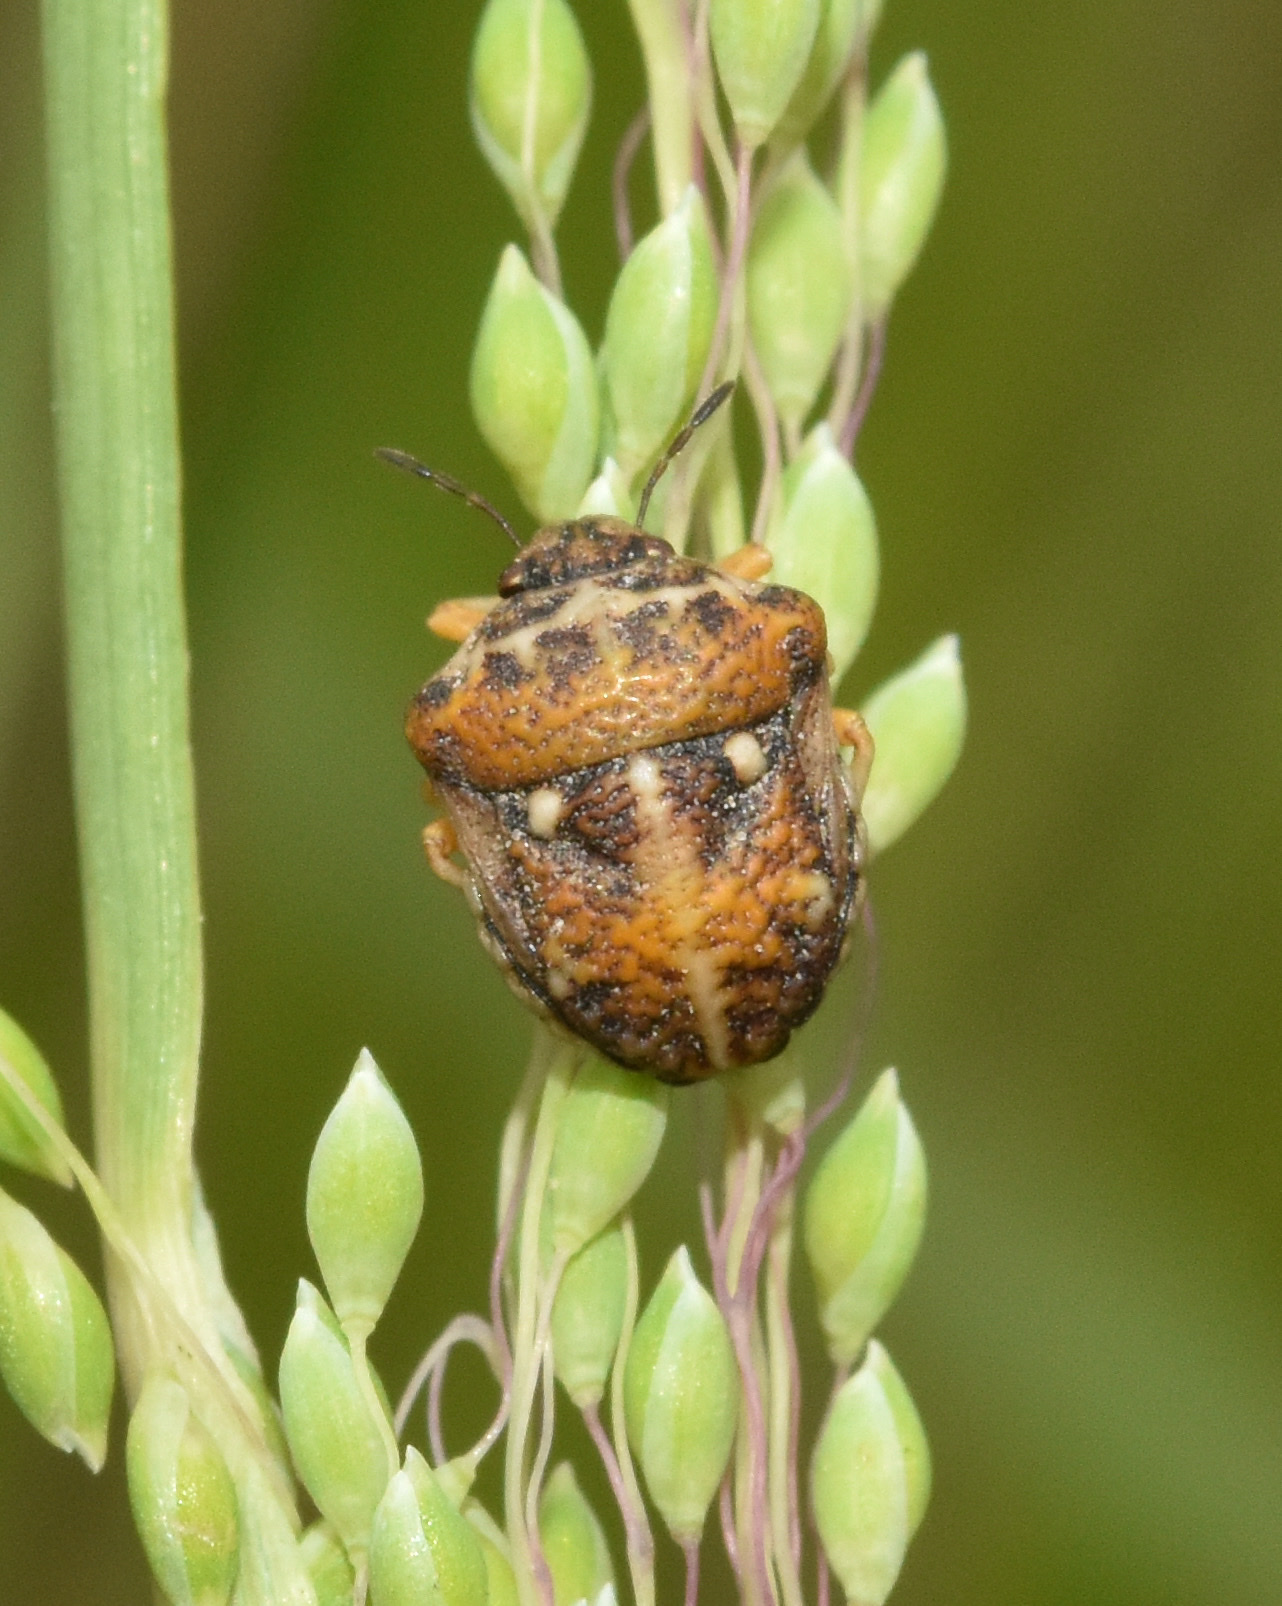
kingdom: Animalia
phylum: Arthropoda
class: Insecta
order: Hemiptera
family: Pentatomidae
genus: Bolbocoris
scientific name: Bolbocoris rufus
